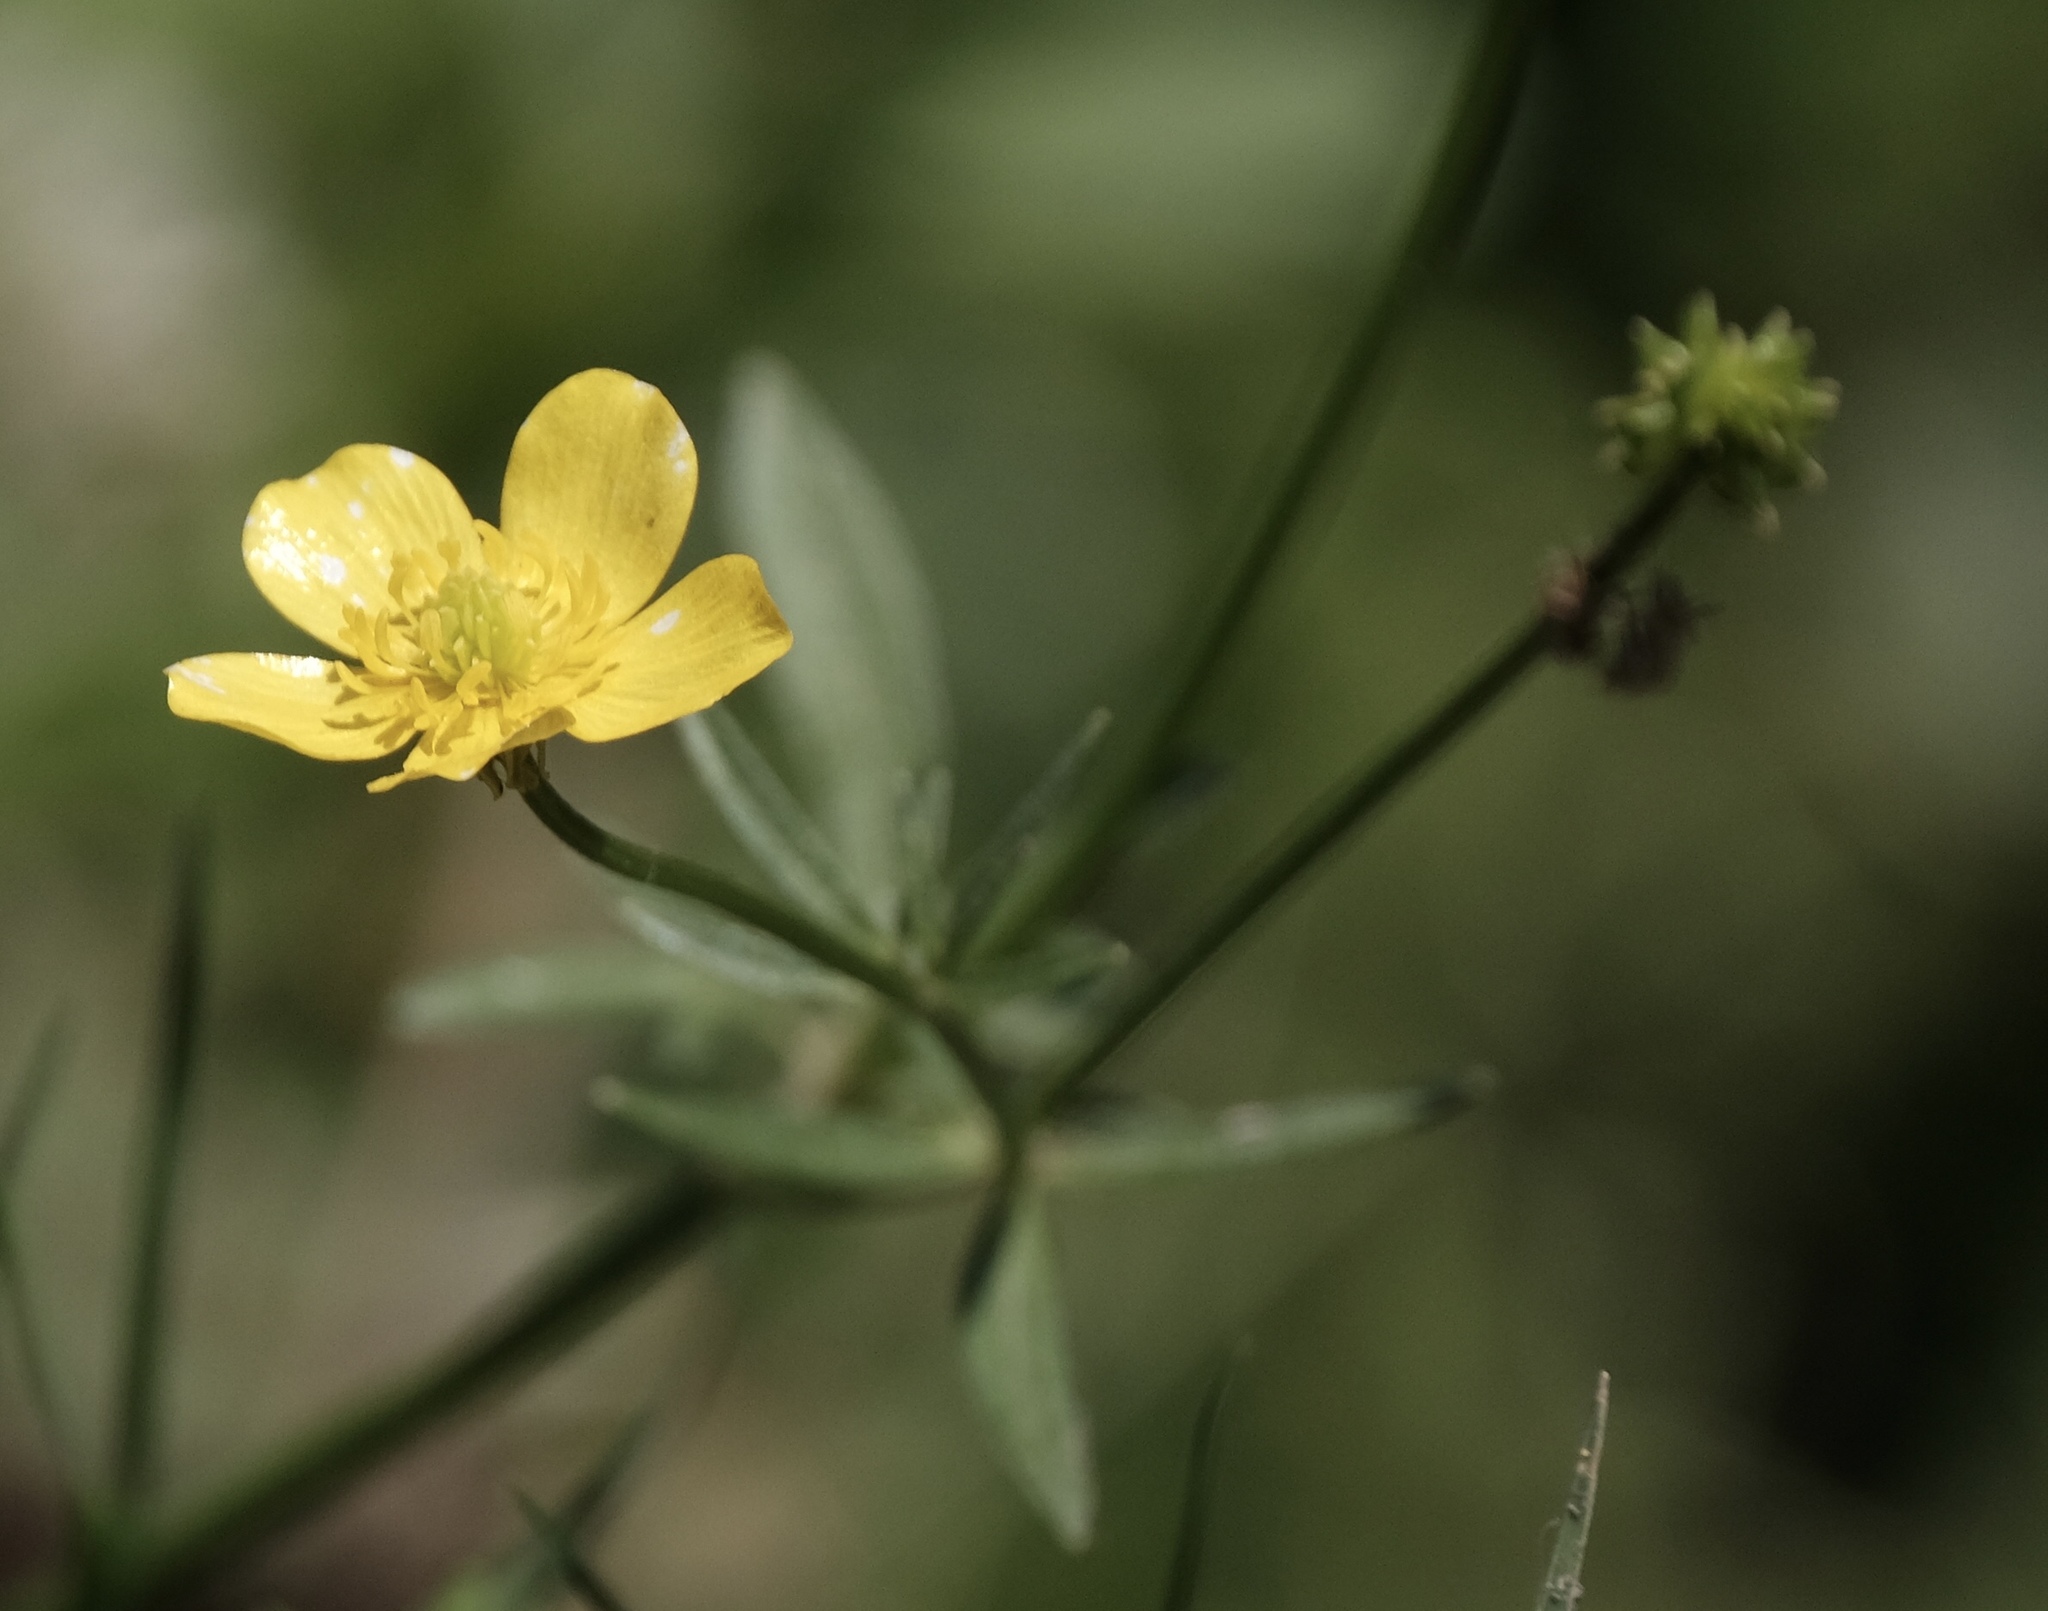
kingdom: Plantae
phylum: Tracheophyta
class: Magnoliopsida
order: Ranunculales
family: Ranunculaceae
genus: Ranunculus
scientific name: Ranunculus hispidus
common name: Bristly buttercup
